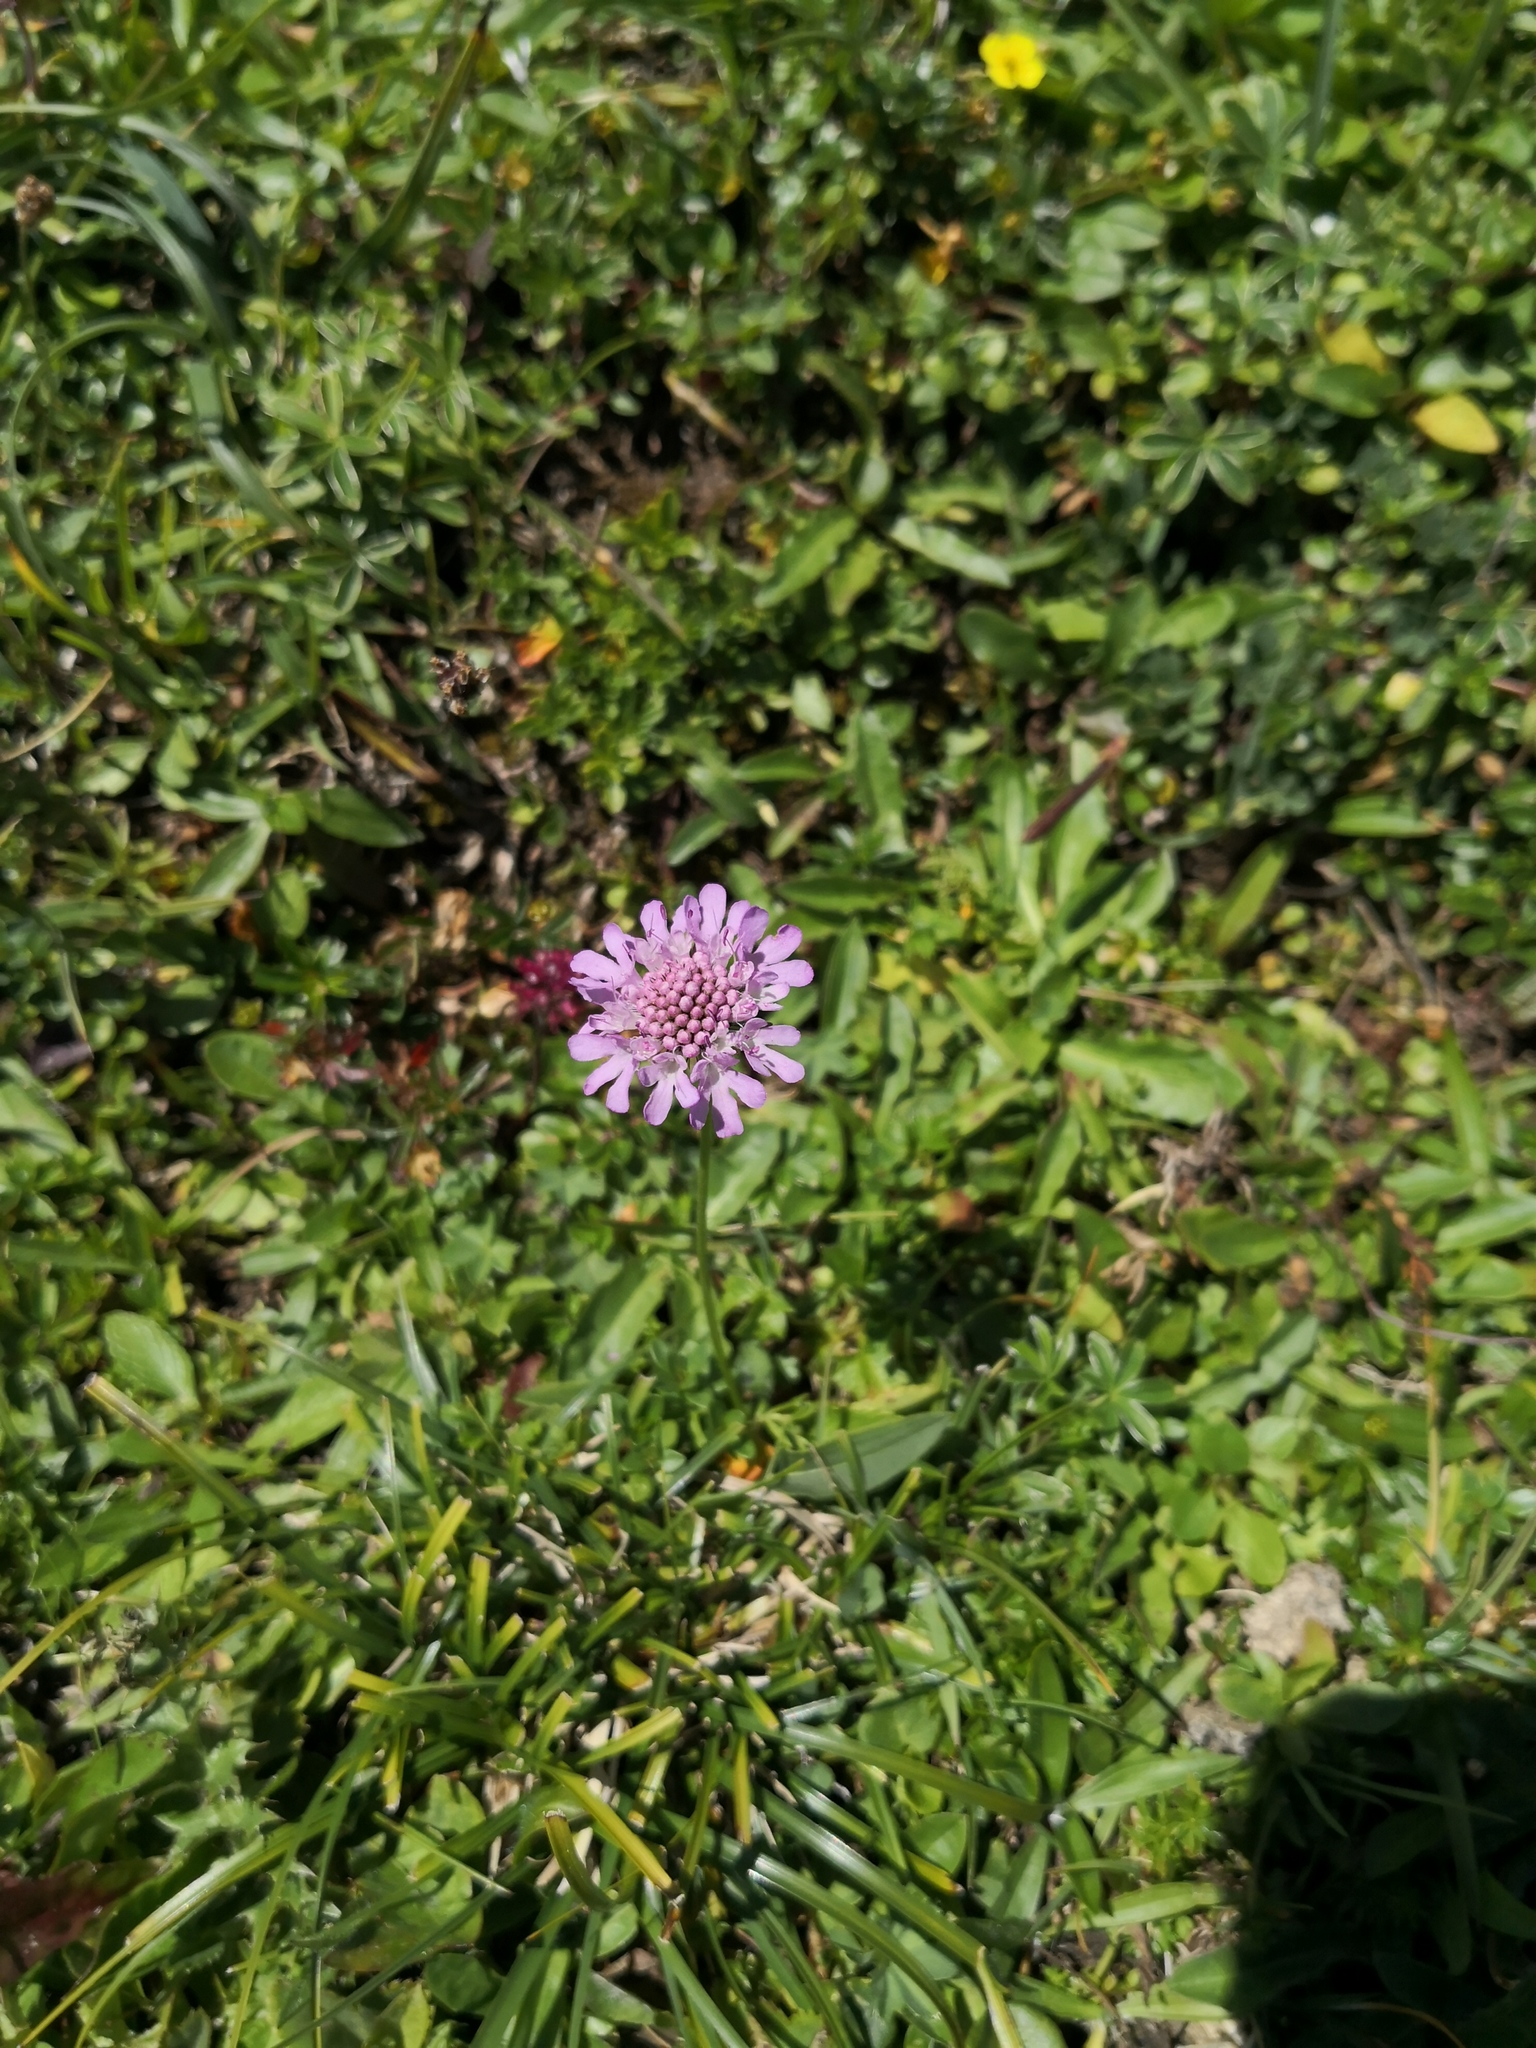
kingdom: Plantae
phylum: Tracheophyta
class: Magnoliopsida
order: Dipsacales
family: Caprifoliaceae
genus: Scabiosa
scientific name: Scabiosa lucida
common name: Shining scabious
